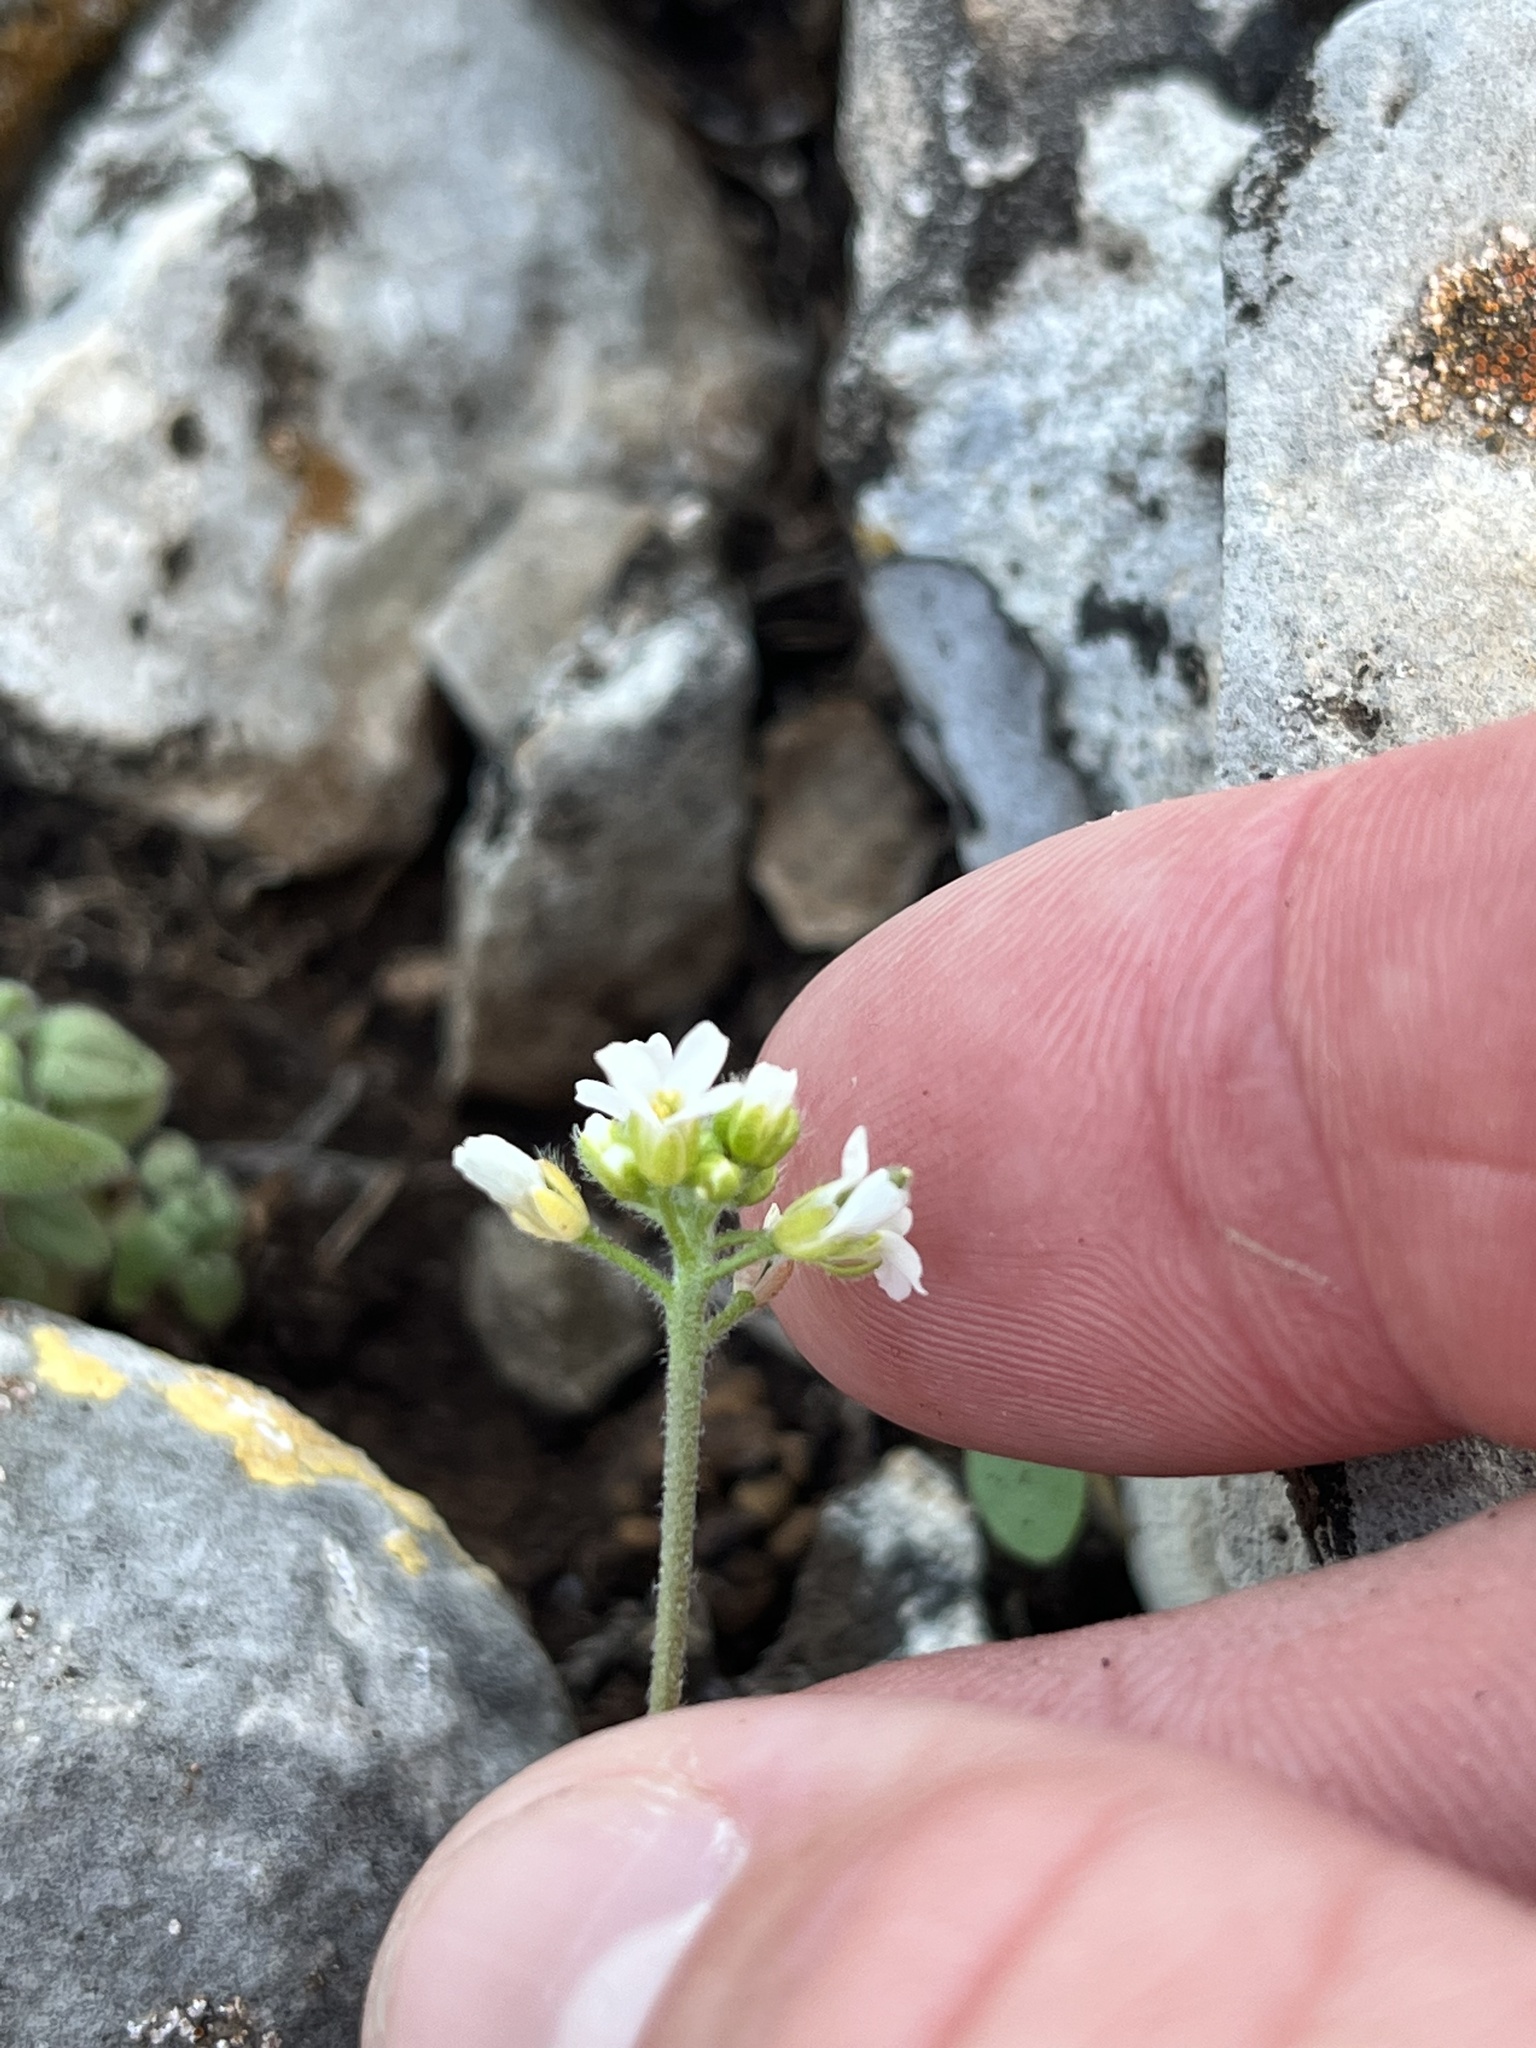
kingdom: Plantae
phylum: Tracheophyta
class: Magnoliopsida
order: Brassicales
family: Brassicaceae
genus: Tomostima
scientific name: Tomostima cuneifolia
